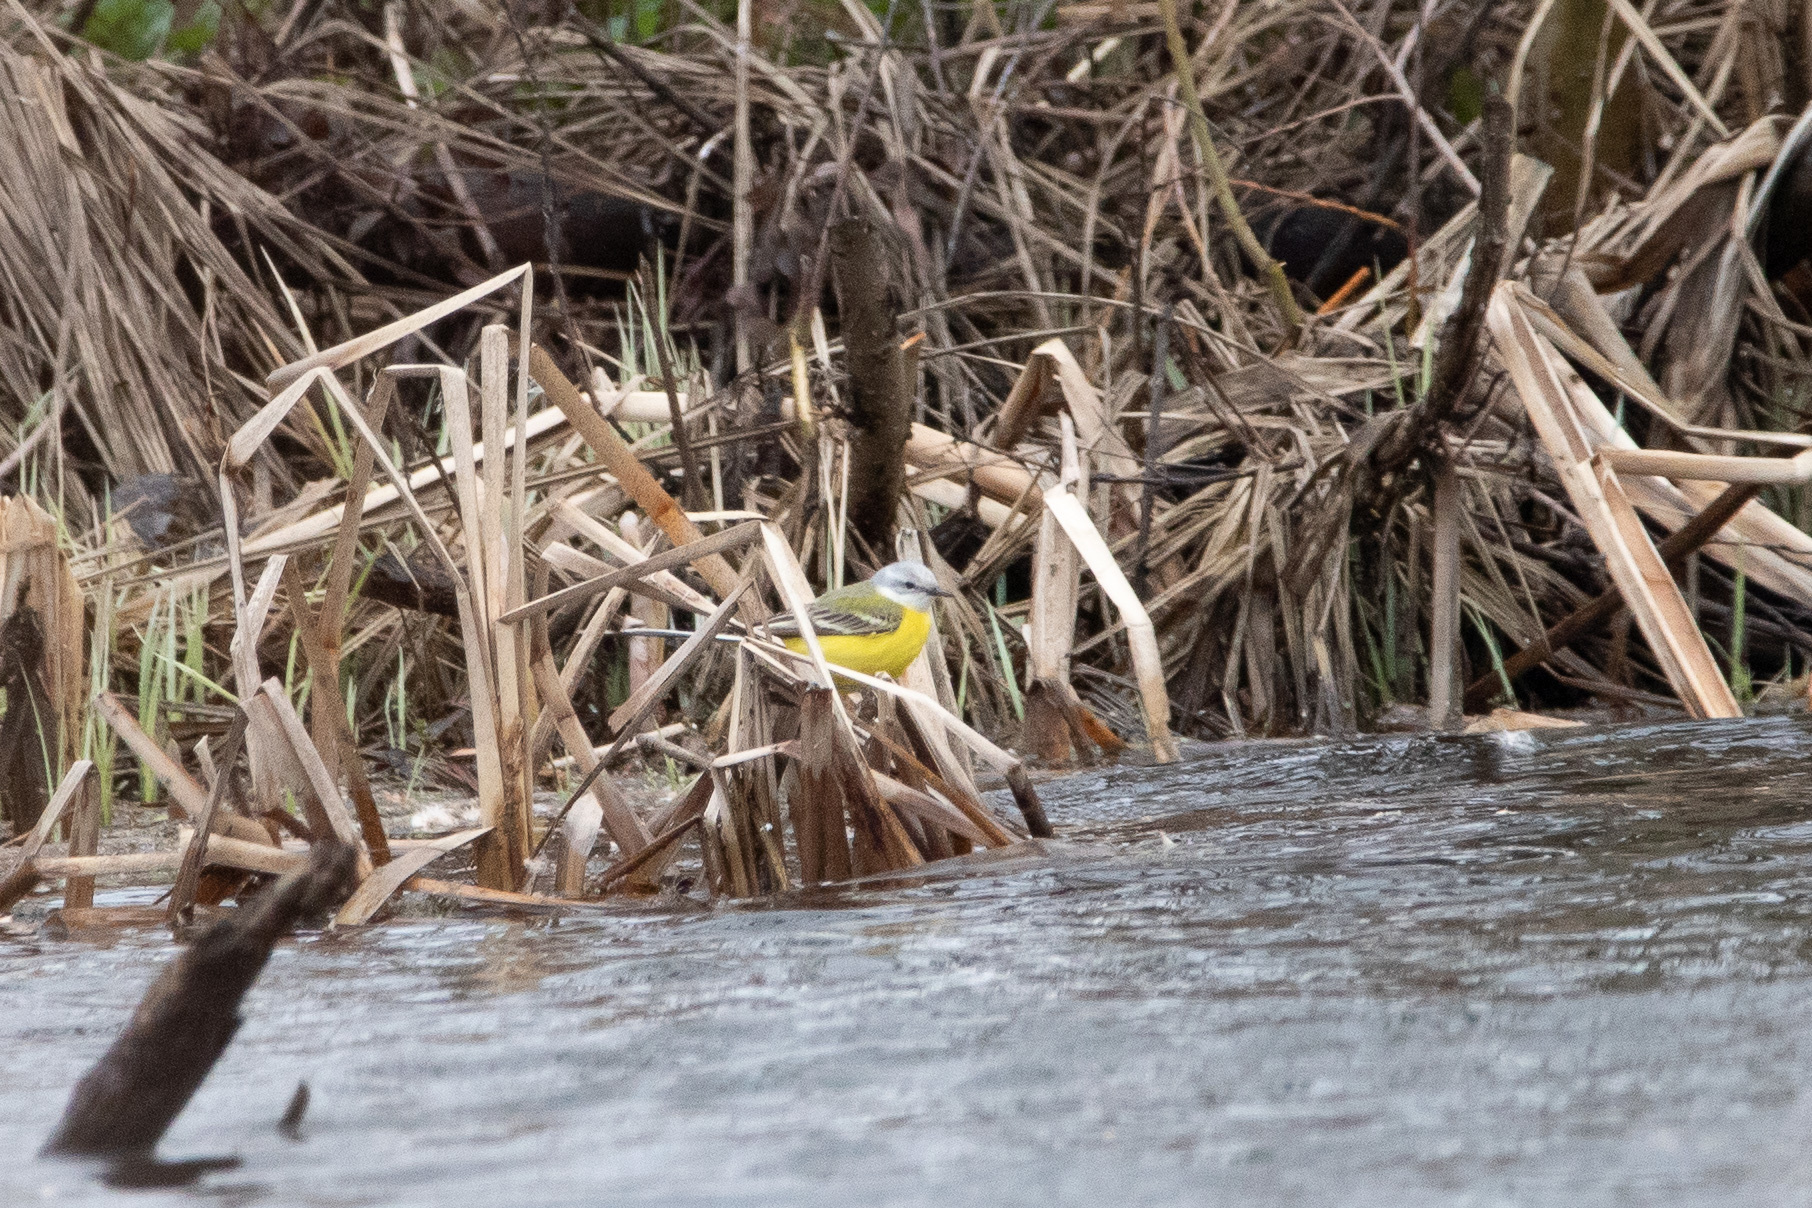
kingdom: Animalia
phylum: Chordata
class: Aves
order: Passeriformes
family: Motacillidae
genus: Motacilla
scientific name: Motacilla flava
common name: Western yellow wagtail
